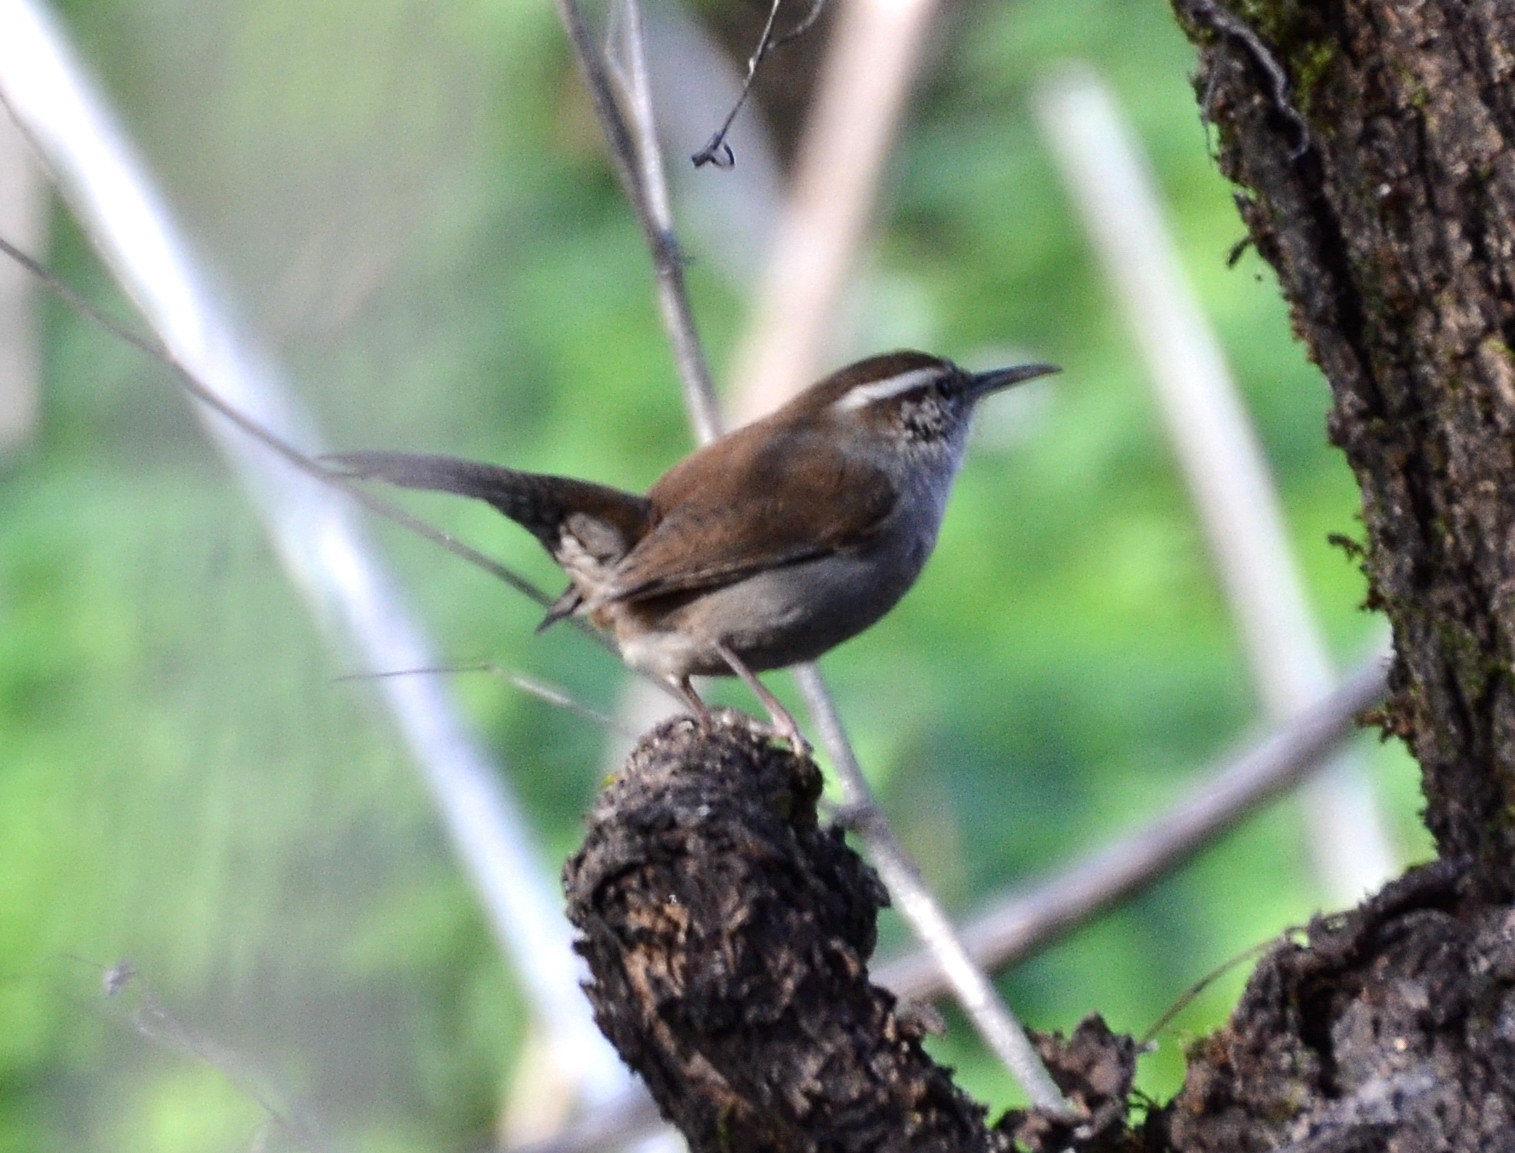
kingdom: Animalia
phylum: Chordata
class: Aves
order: Passeriformes
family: Troglodytidae
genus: Thryomanes
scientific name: Thryomanes bewickii
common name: Bewick's wren
